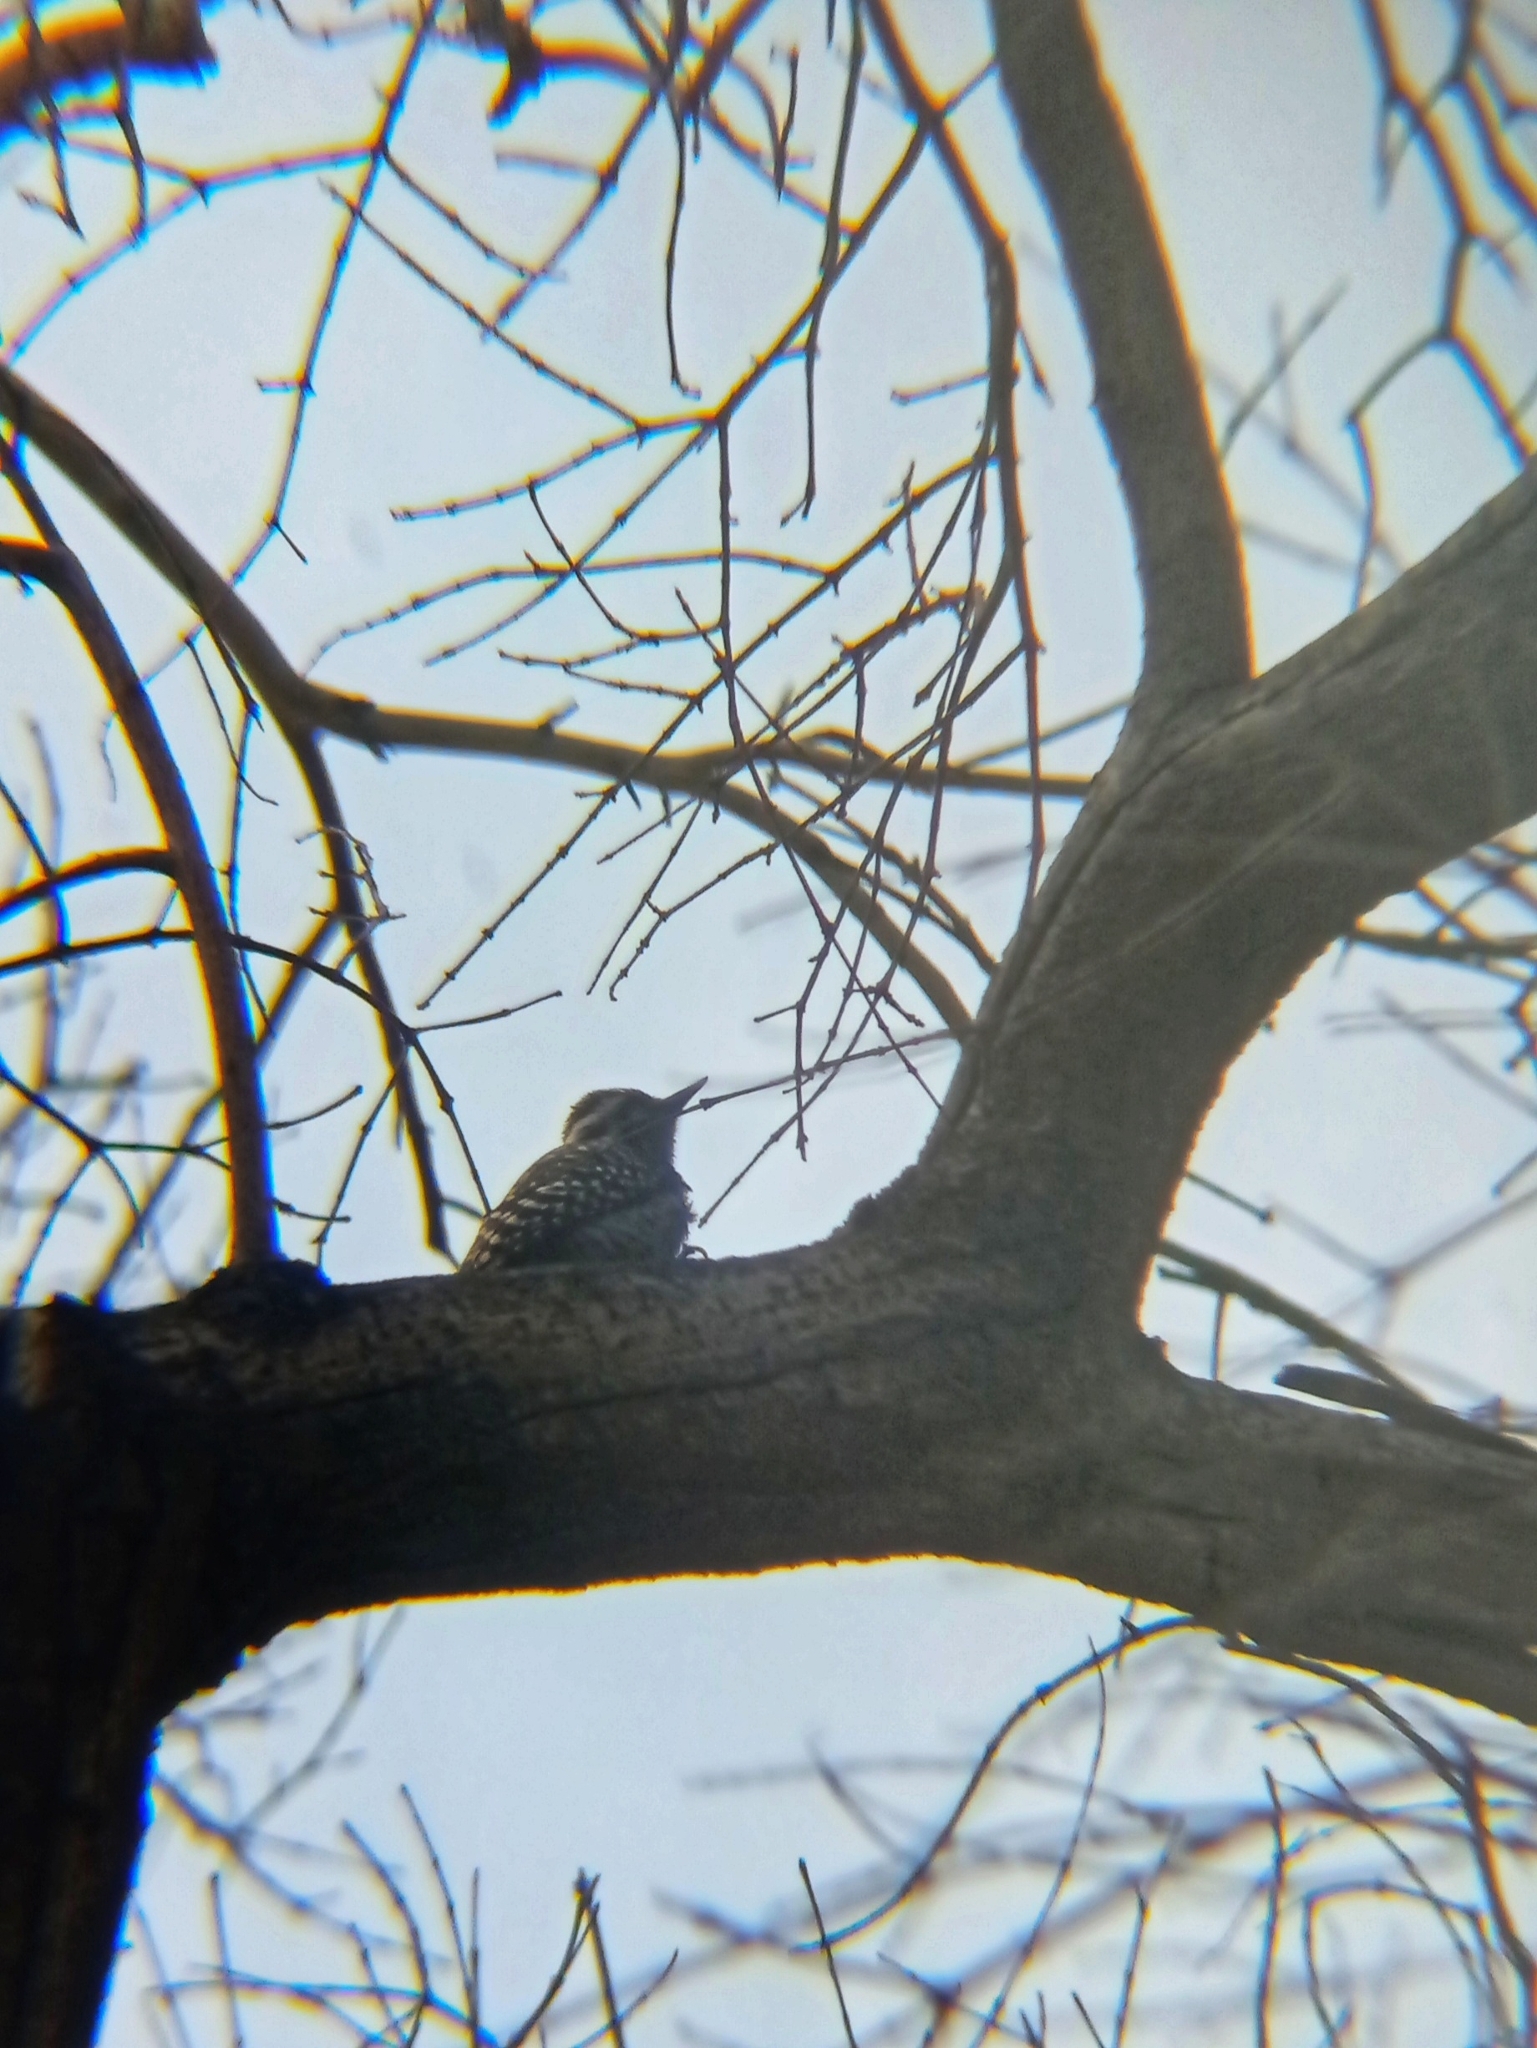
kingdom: Animalia
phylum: Chordata
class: Aves
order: Piciformes
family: Picidae
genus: Veniliornis
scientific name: Veniliornis lignarius
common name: Striped woodpecker
